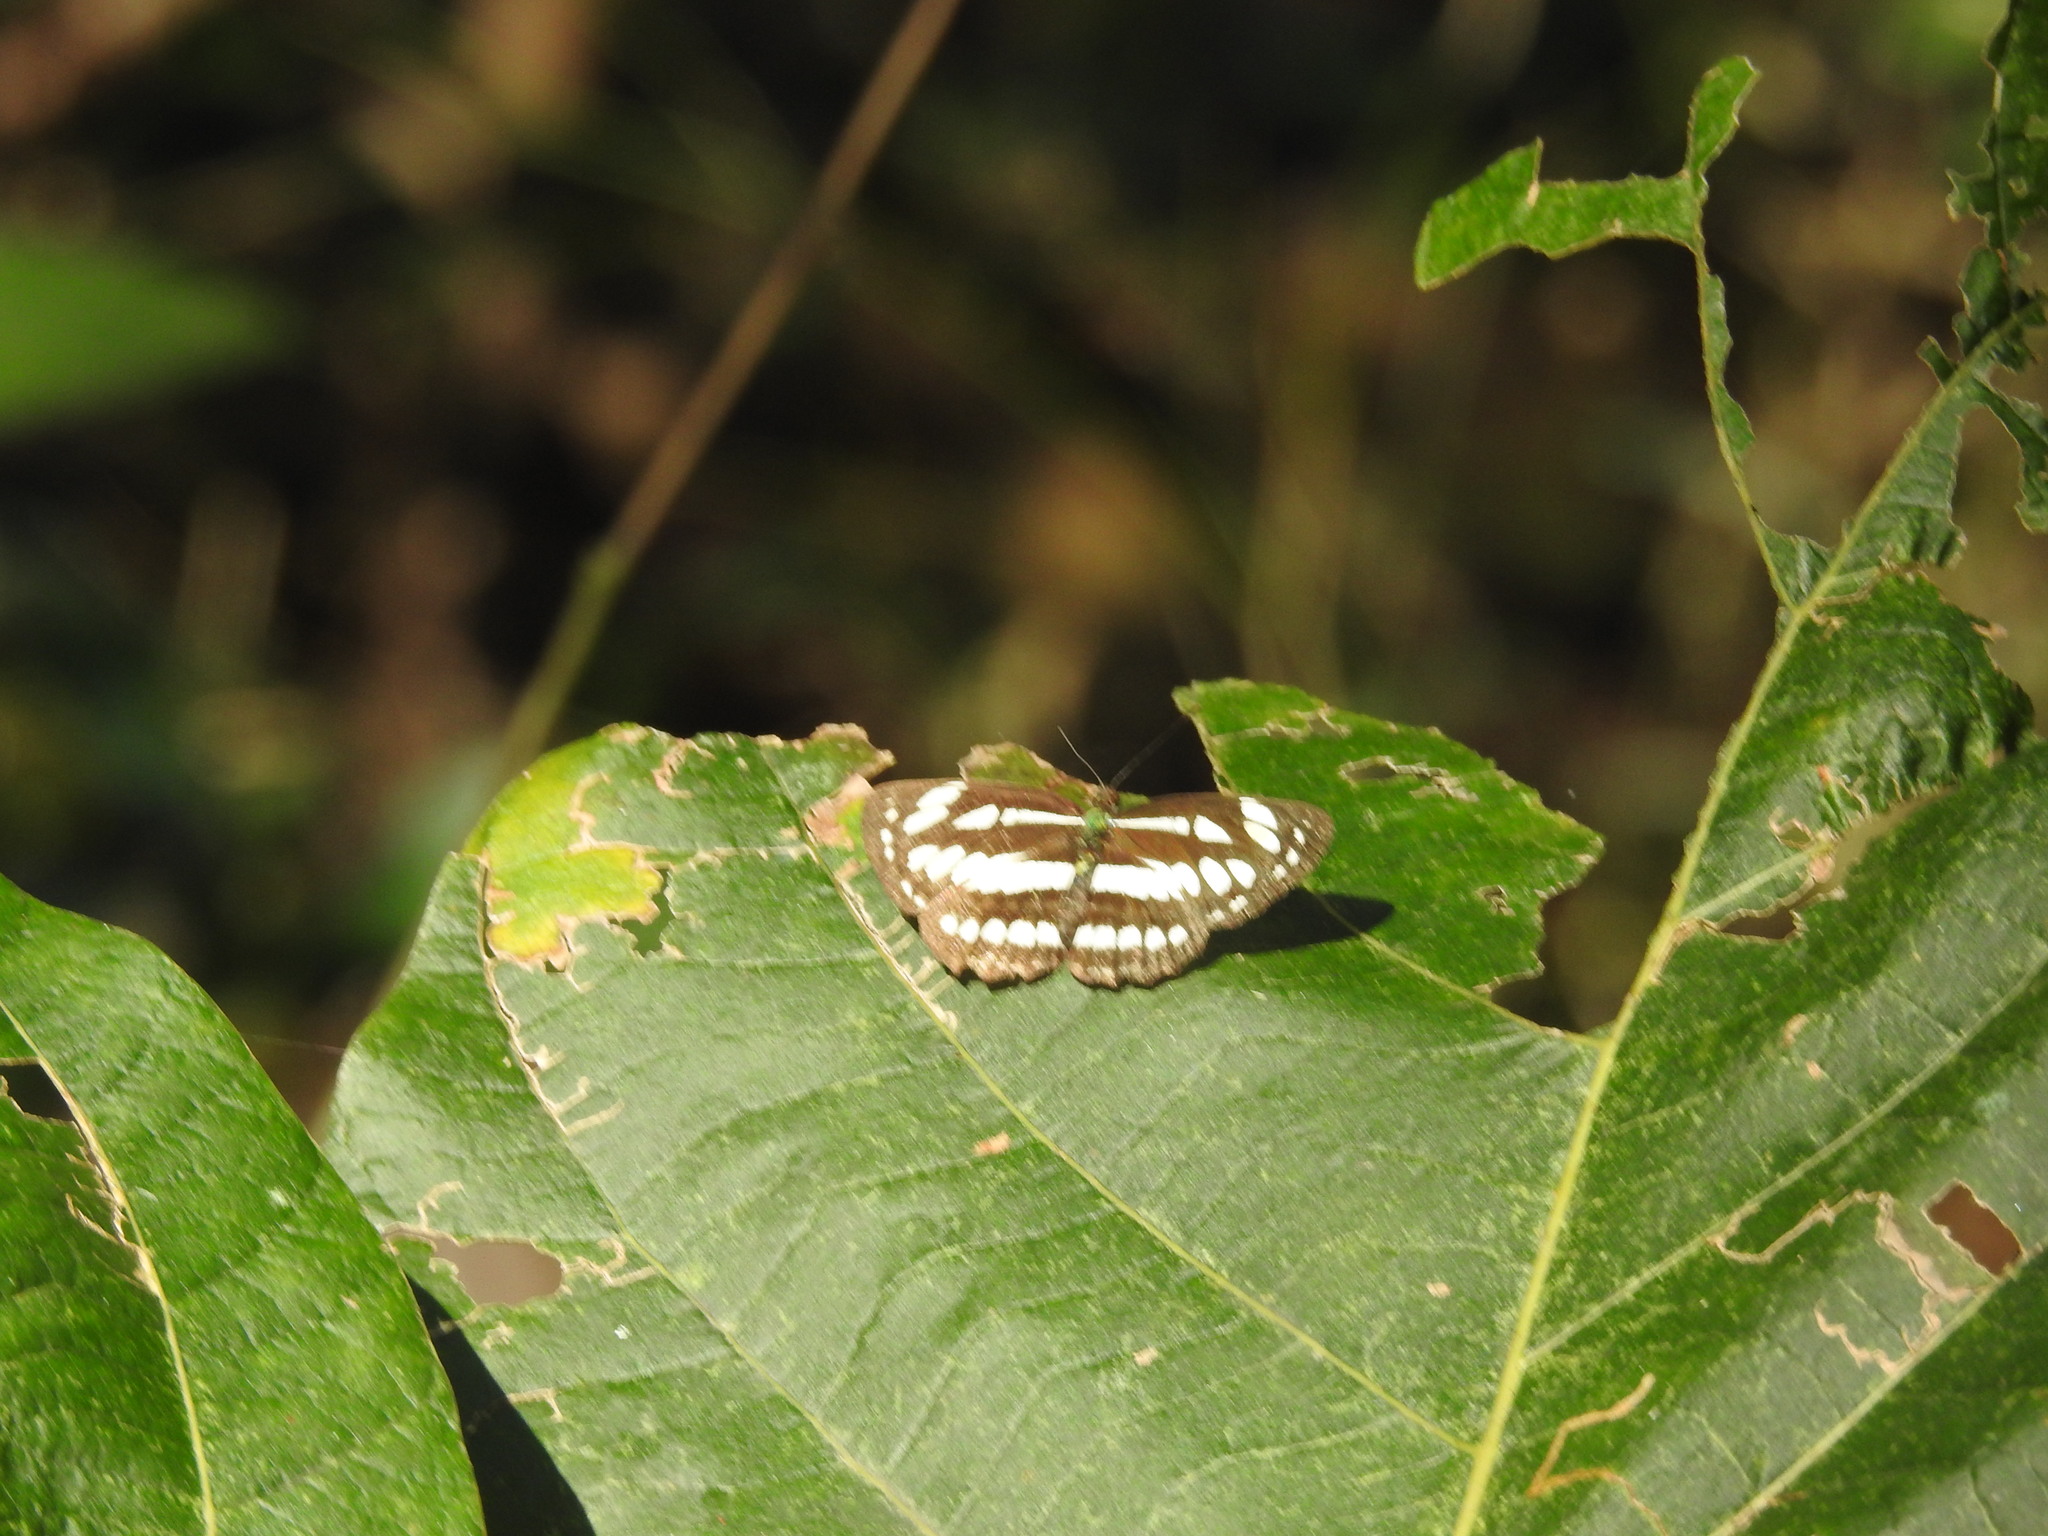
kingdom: Animalia
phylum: Arthropoda
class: Insecta
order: Lepidoptera
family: Nymphalidae
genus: Neptis
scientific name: Neptis hylas
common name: Common sailer
